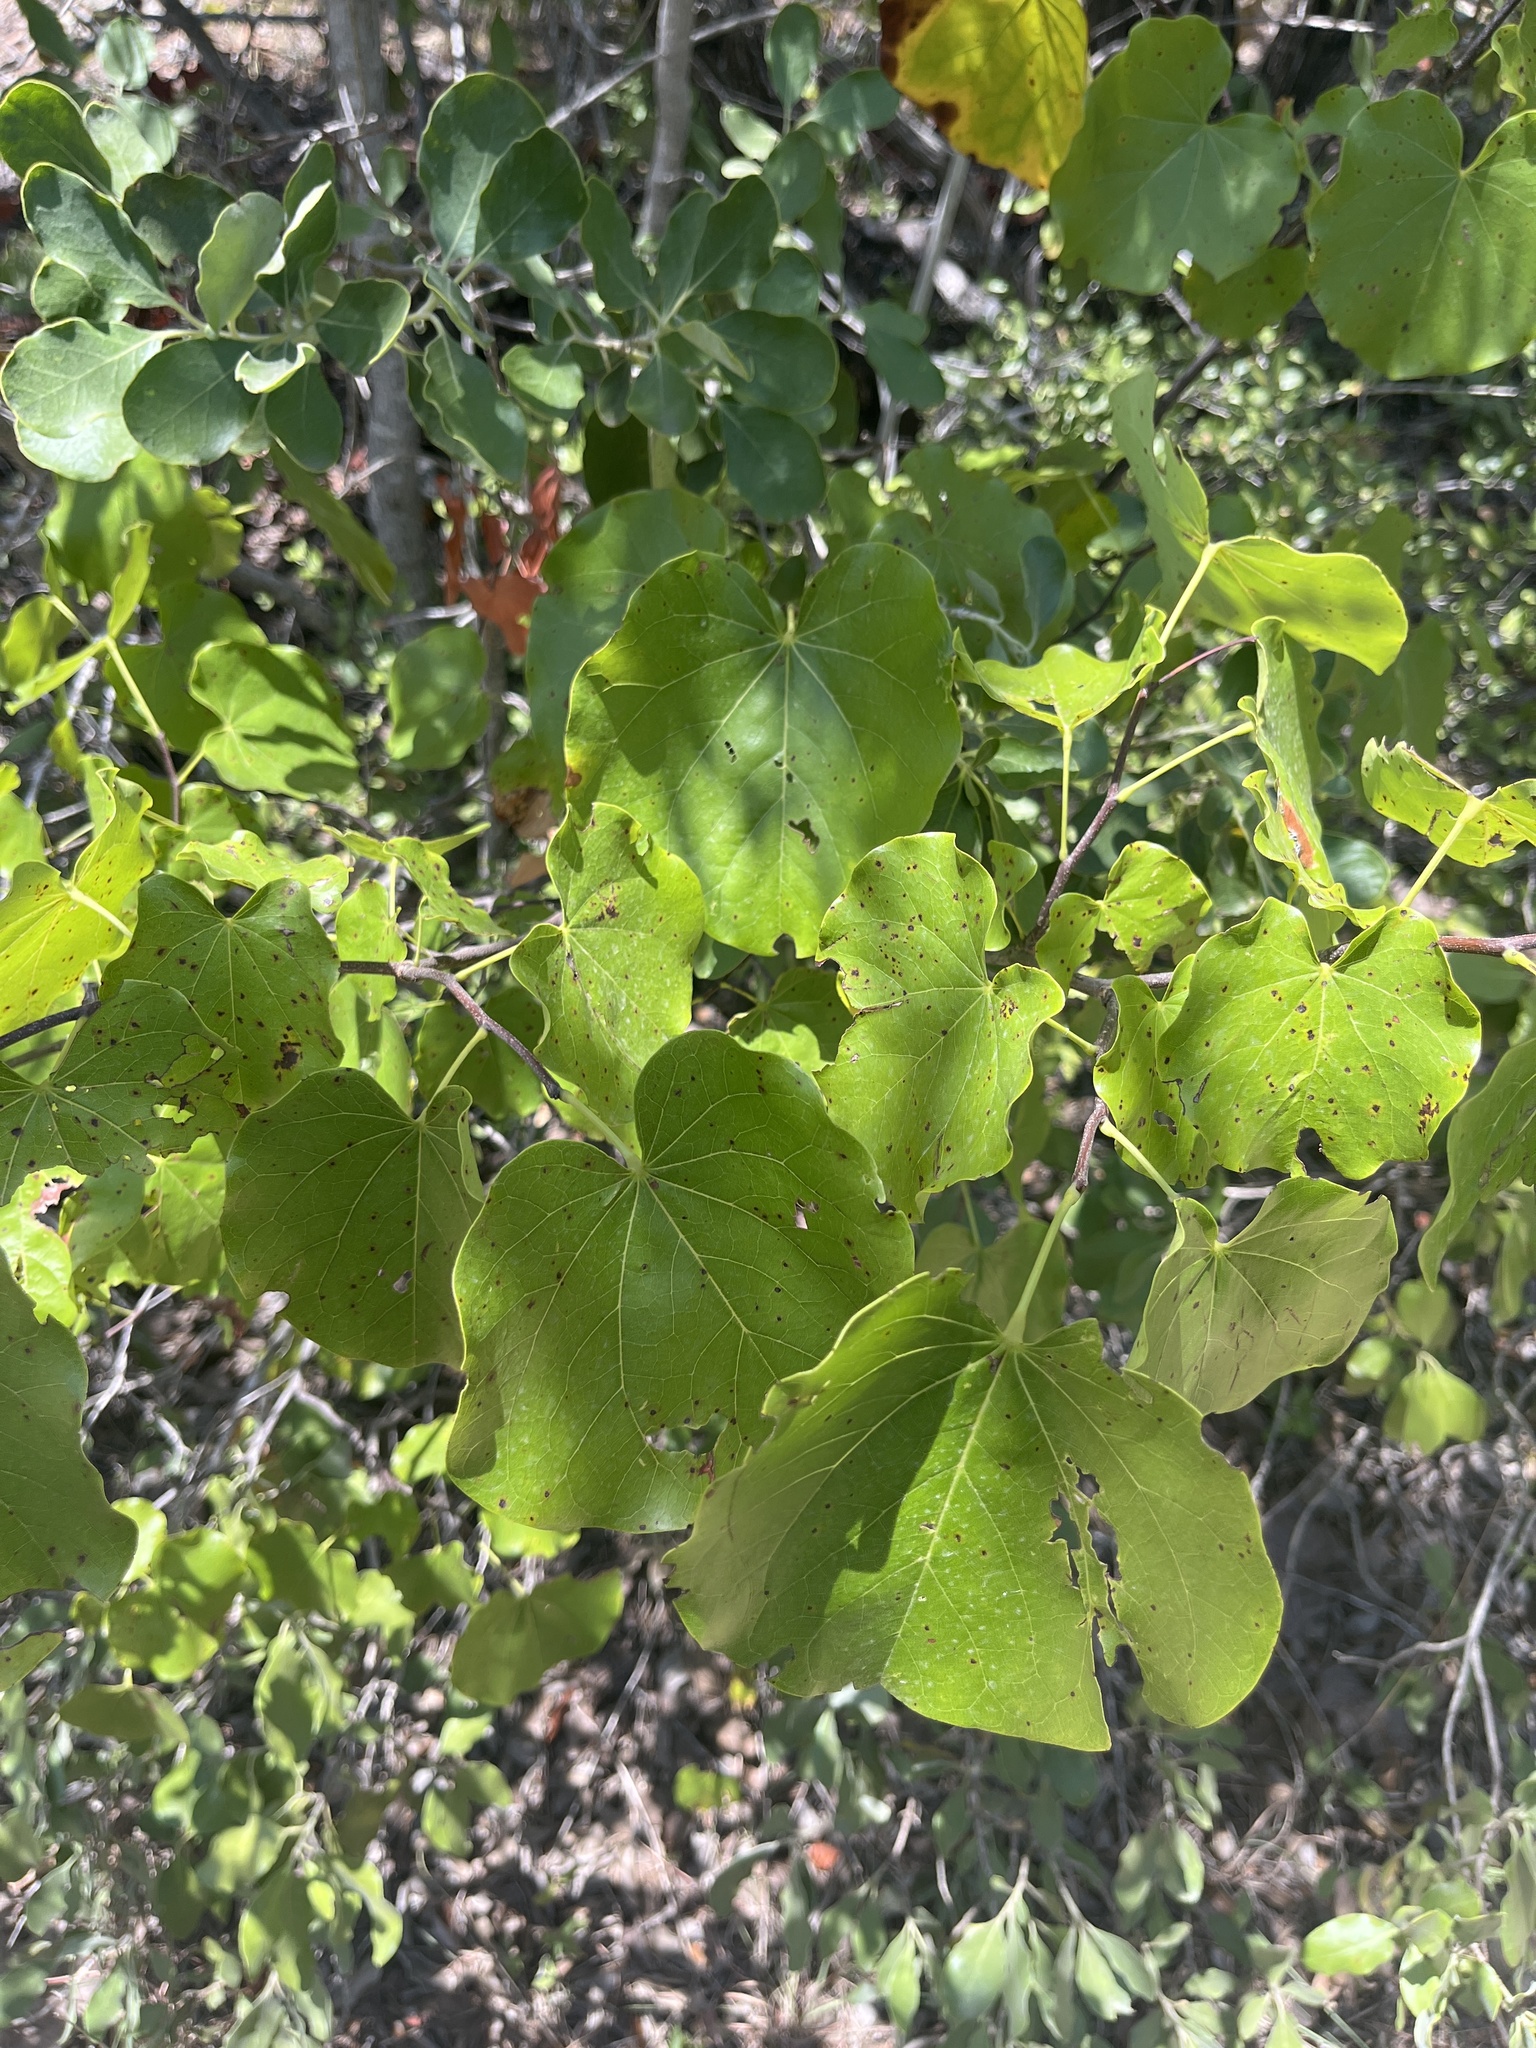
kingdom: Plantae
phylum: Tracheophyta
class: Magnoliopsida
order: Fabales
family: Fabaceae
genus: Cercis
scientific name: Cercis canadensis
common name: Eastern redbud
